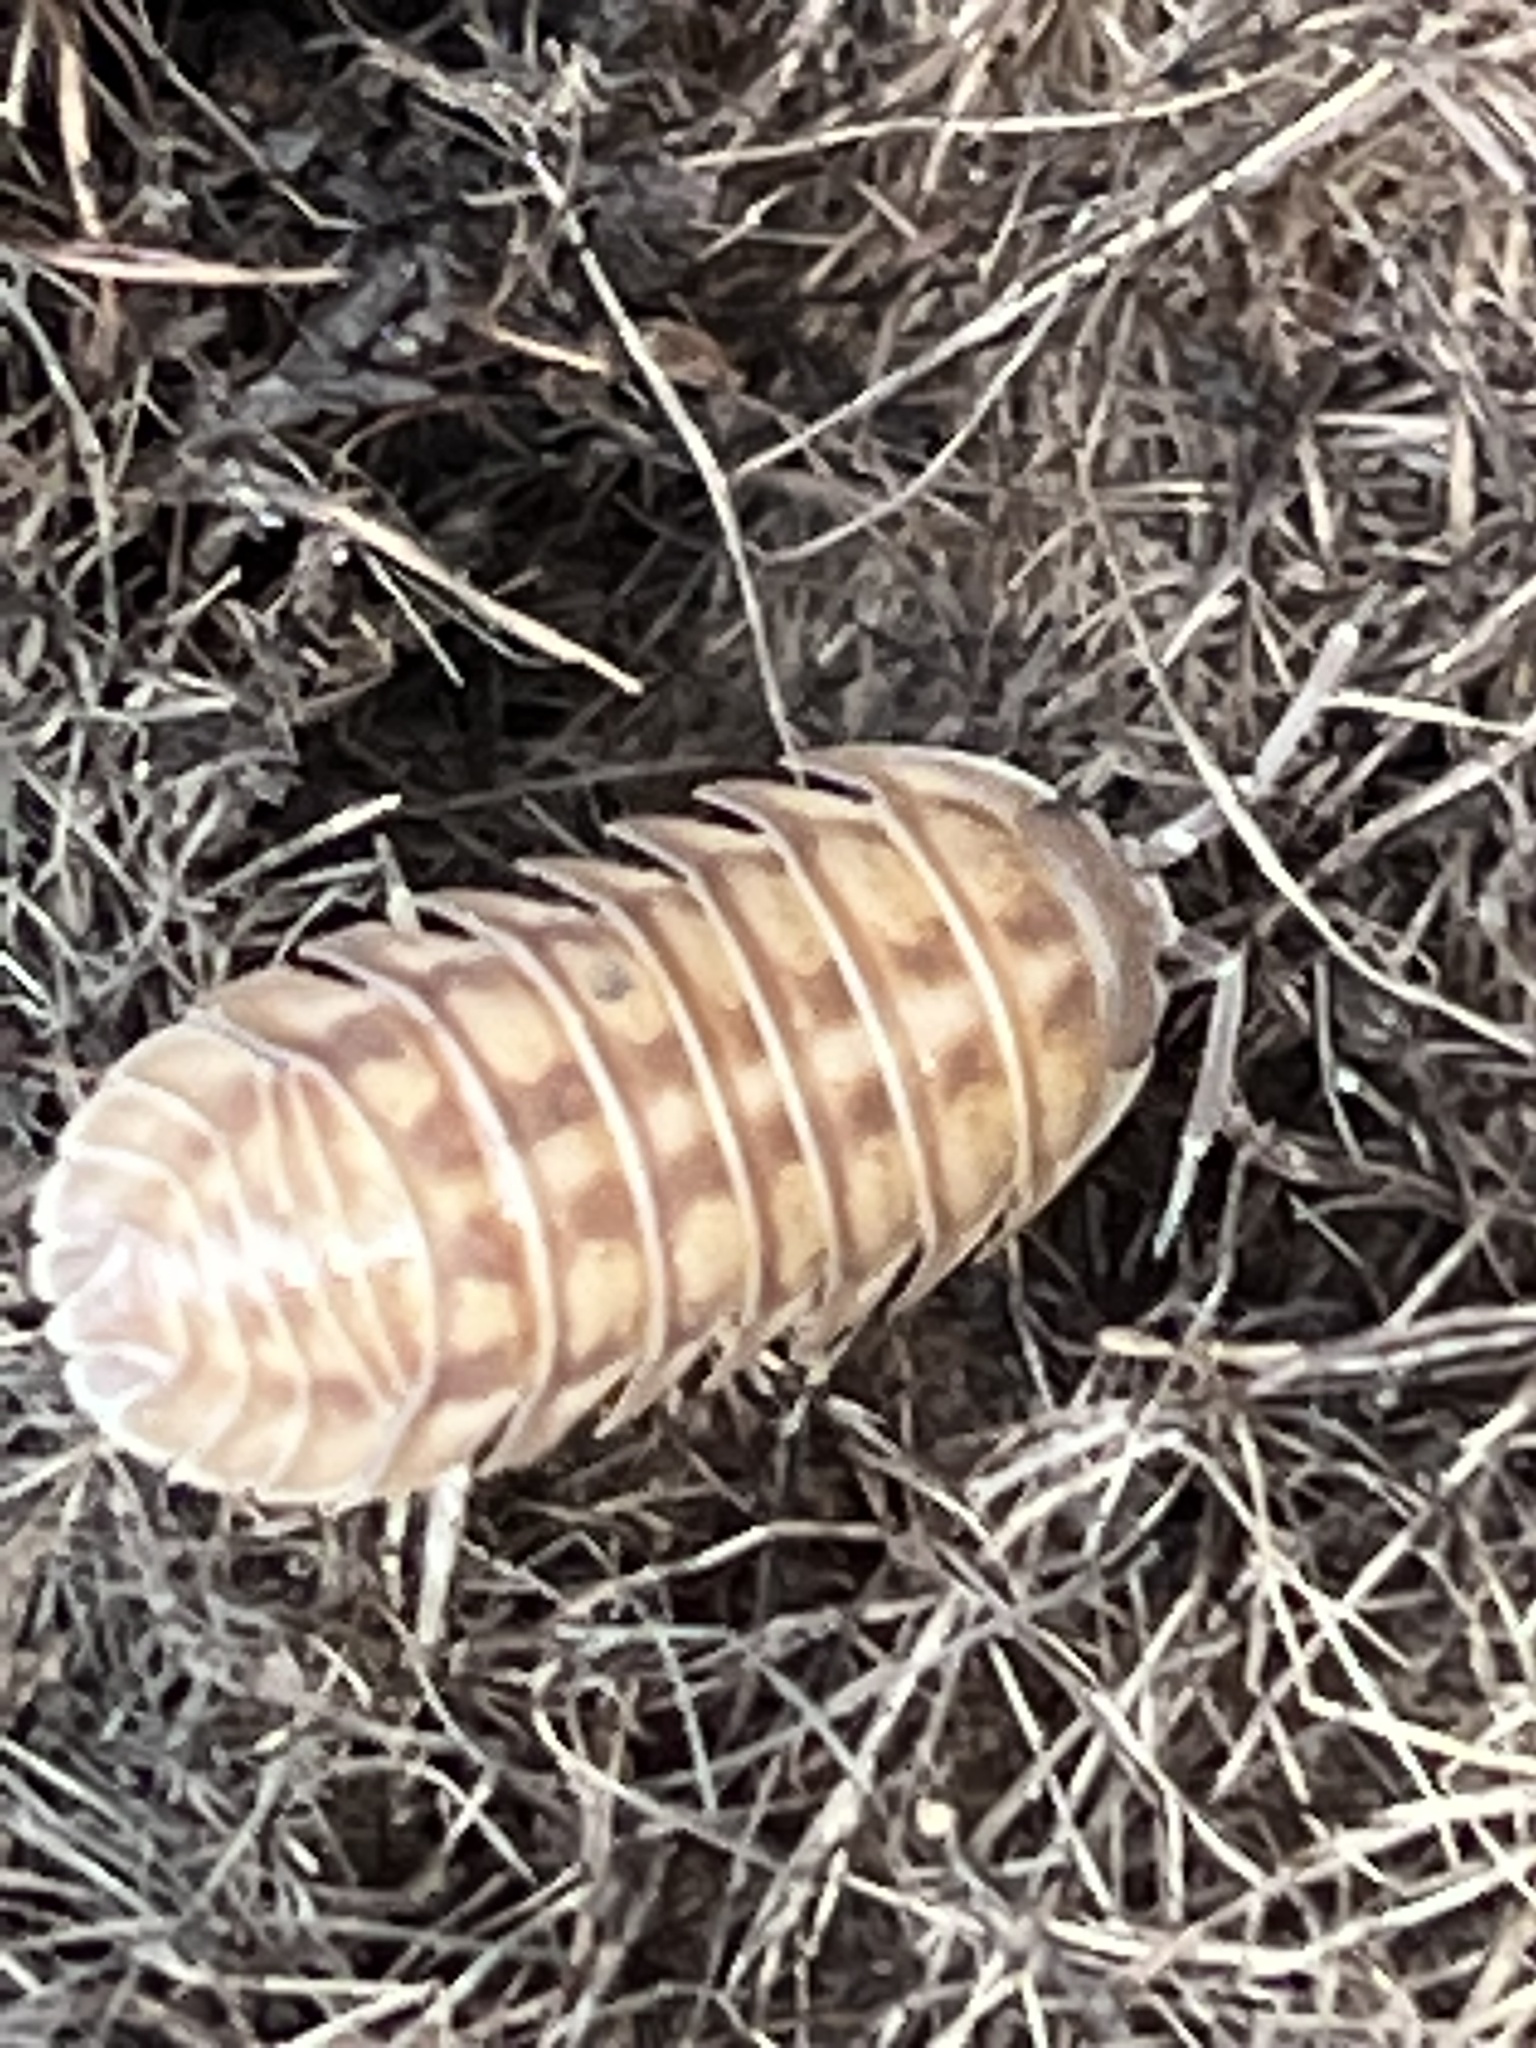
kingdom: Animalia
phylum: Arthropoda
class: Malacostraca
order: Isopoda
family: Armadillidiidae
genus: Armadillidium
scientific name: Armadillidium nasatum
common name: Isopod
